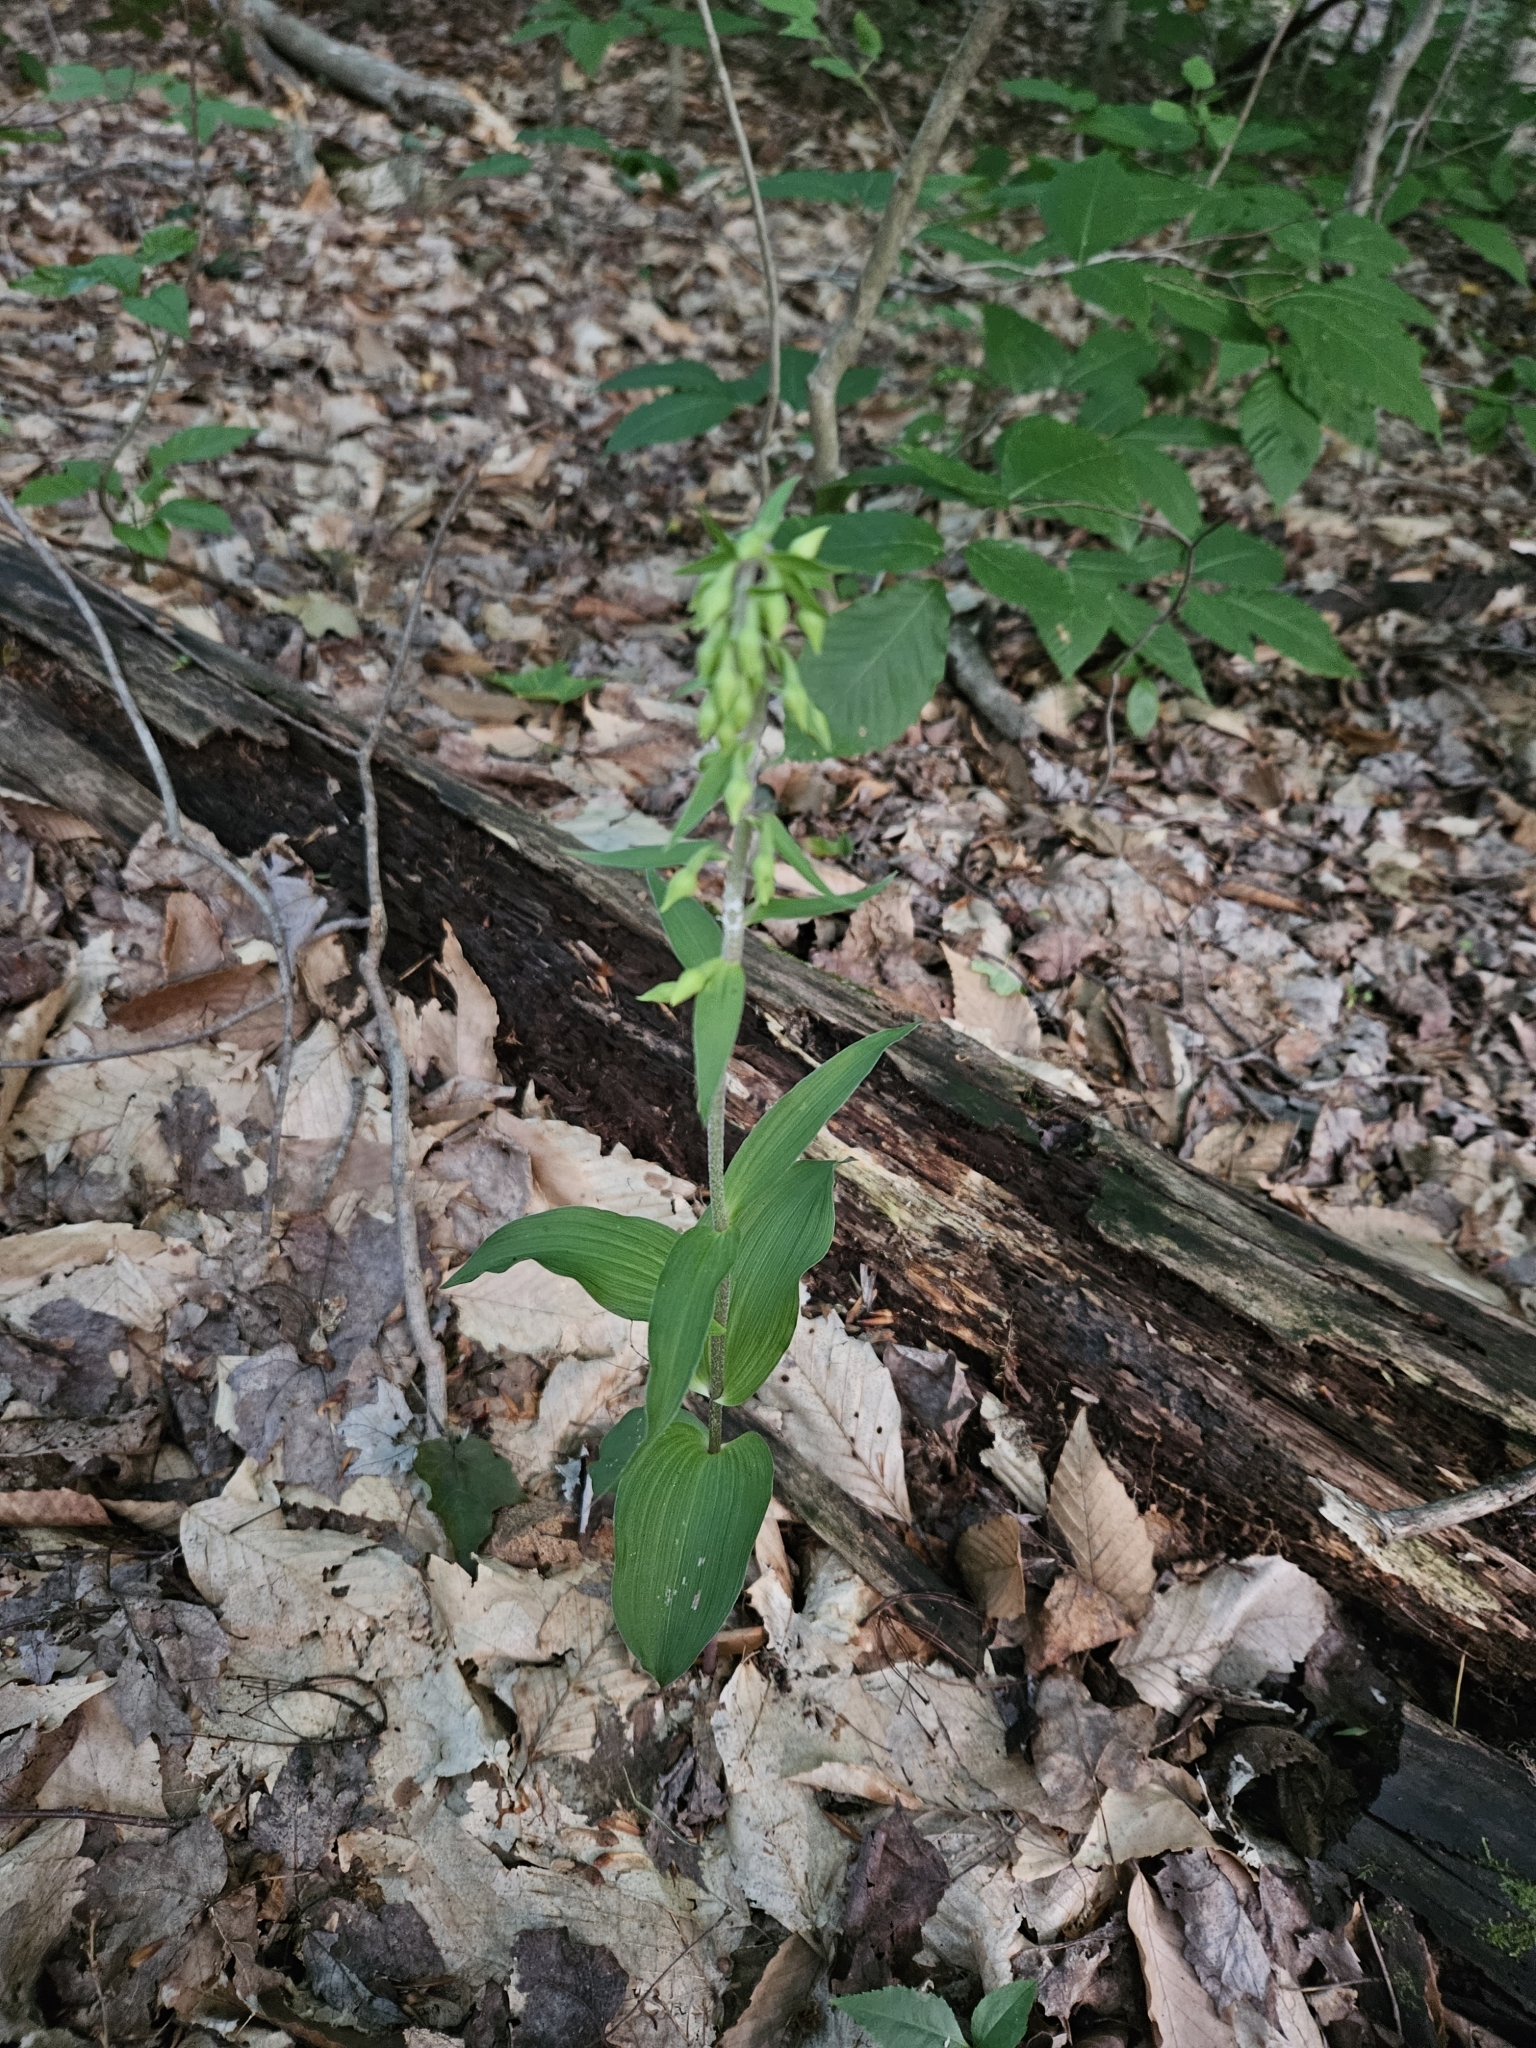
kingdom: Plantae
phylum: Tracheophyta
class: Liliopsida
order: Asparagales
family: Orchidaceae
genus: Epipactis
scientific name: Epipactis helleborine
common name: Broad-leaved helleborine
